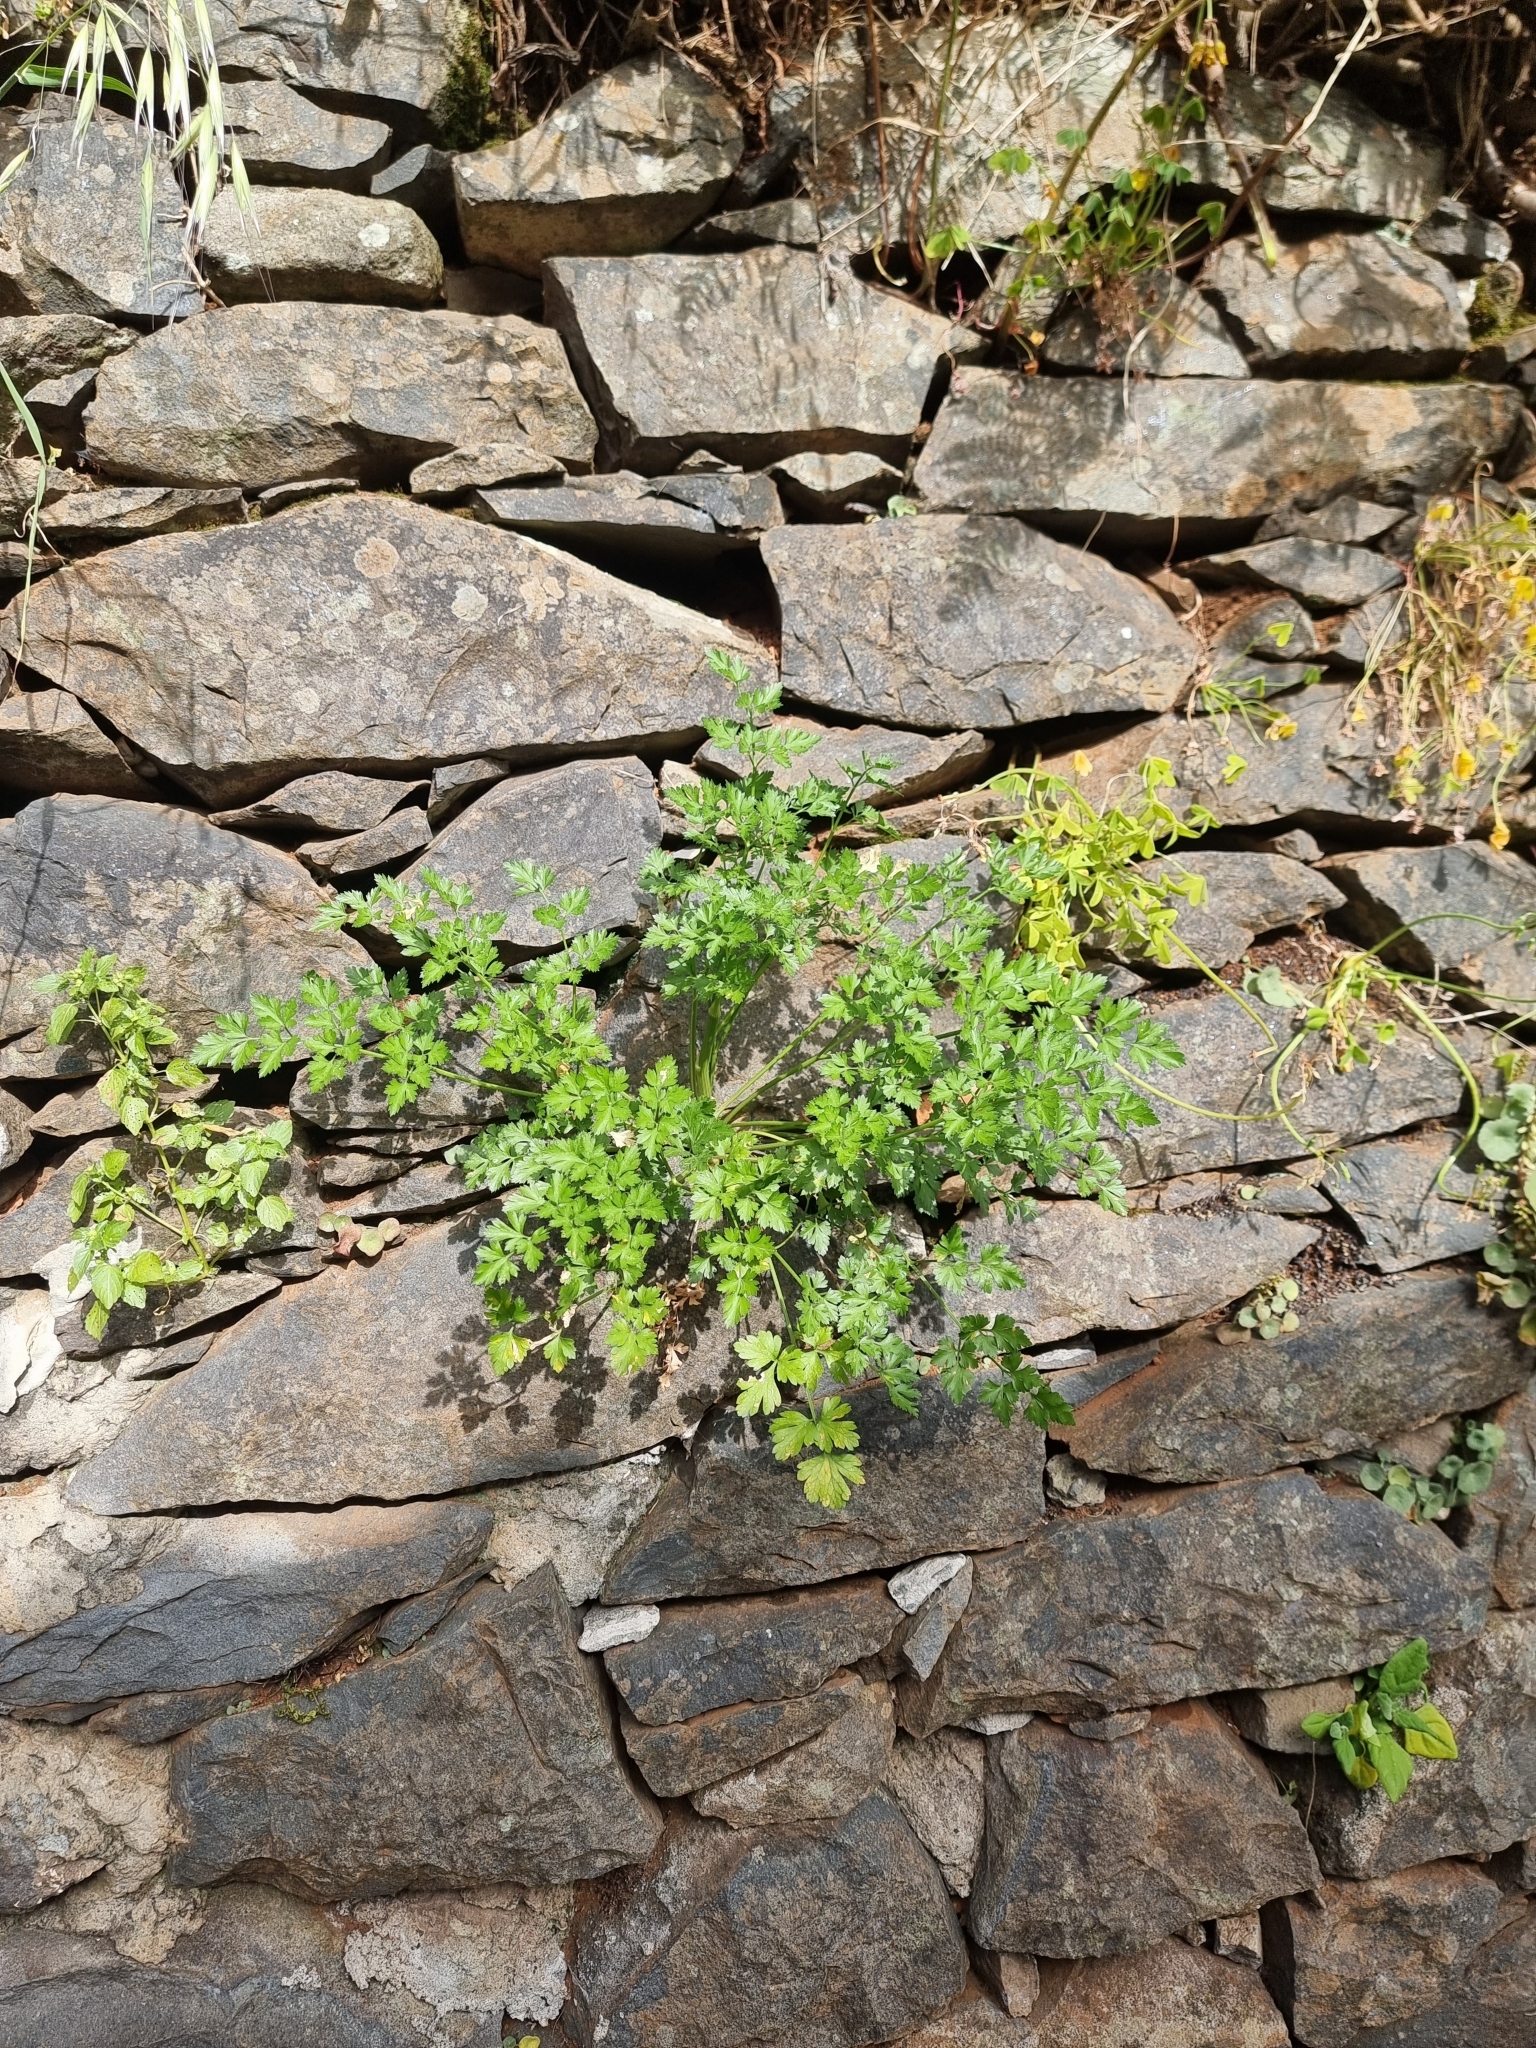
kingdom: Plantae
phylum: Tracheophyta
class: Magnoliopsida
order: Apiales
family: Apiaceae
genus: Petroselinum
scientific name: Petroselinum crispum
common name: Parsley
